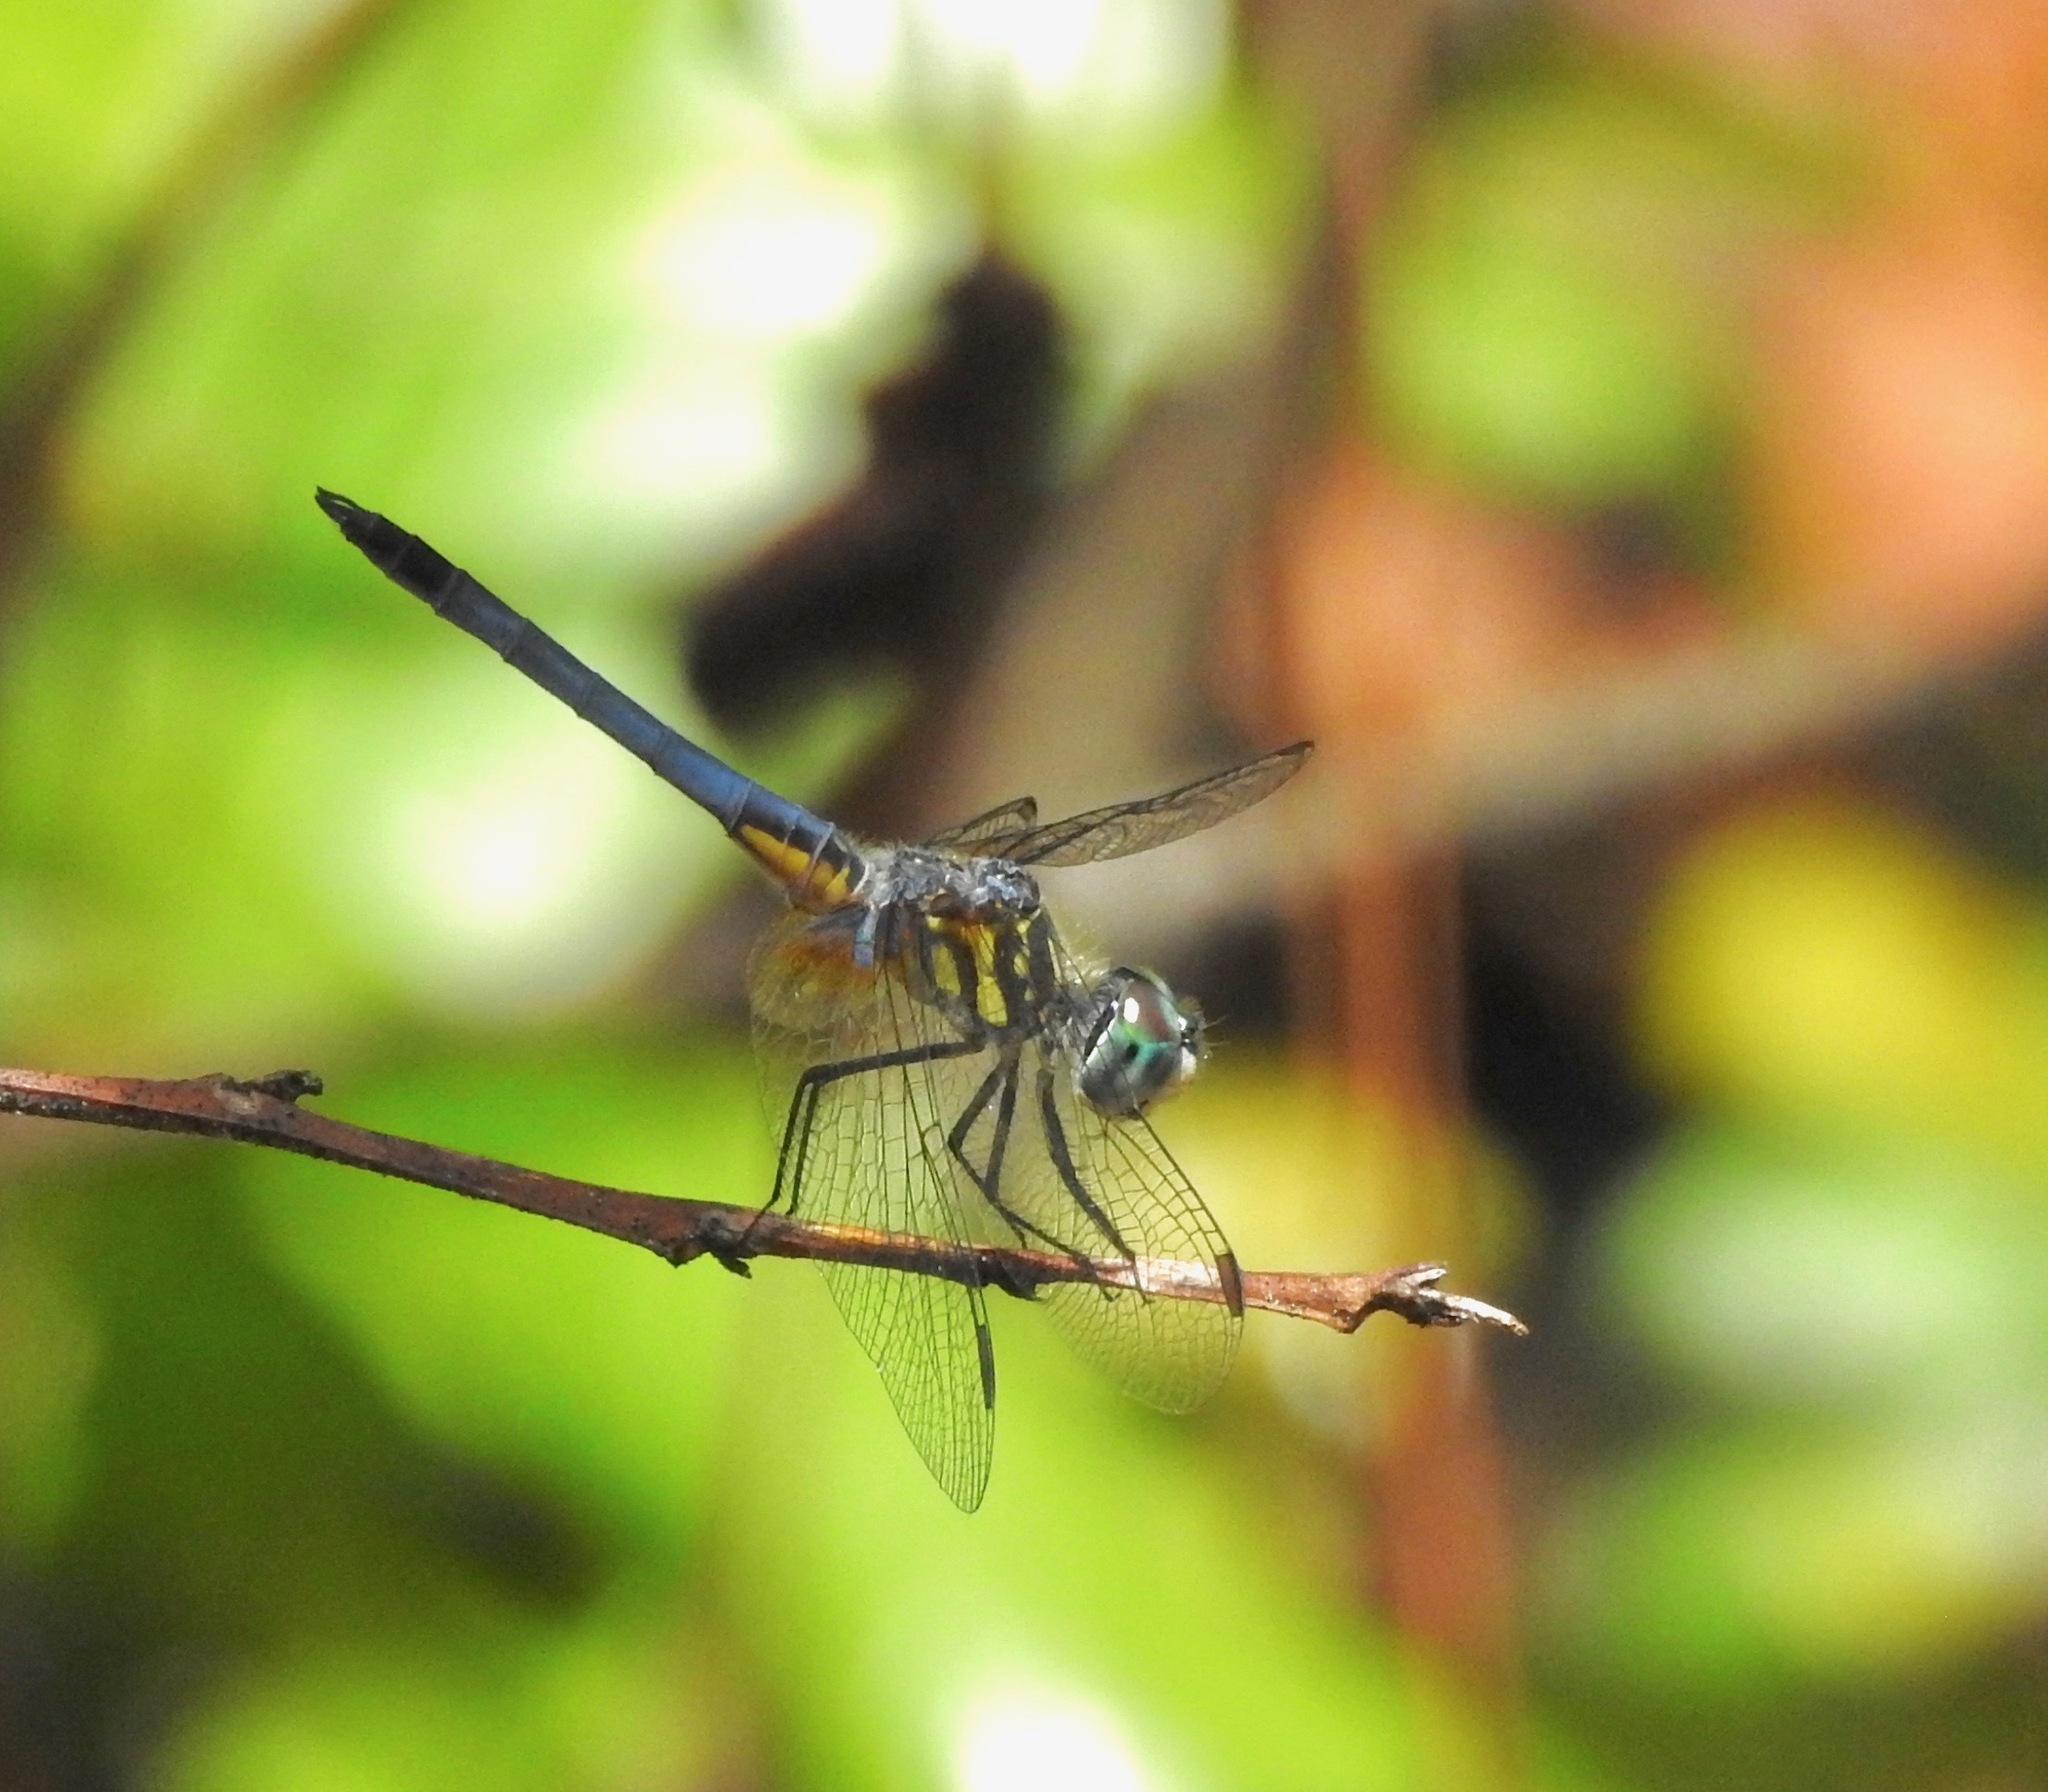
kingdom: Animalia
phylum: Arthropoda
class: Insecta
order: Odonata
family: Libellulidae
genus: Pachydiplax
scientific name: Pachydiplax longipennis
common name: Blue dasher
